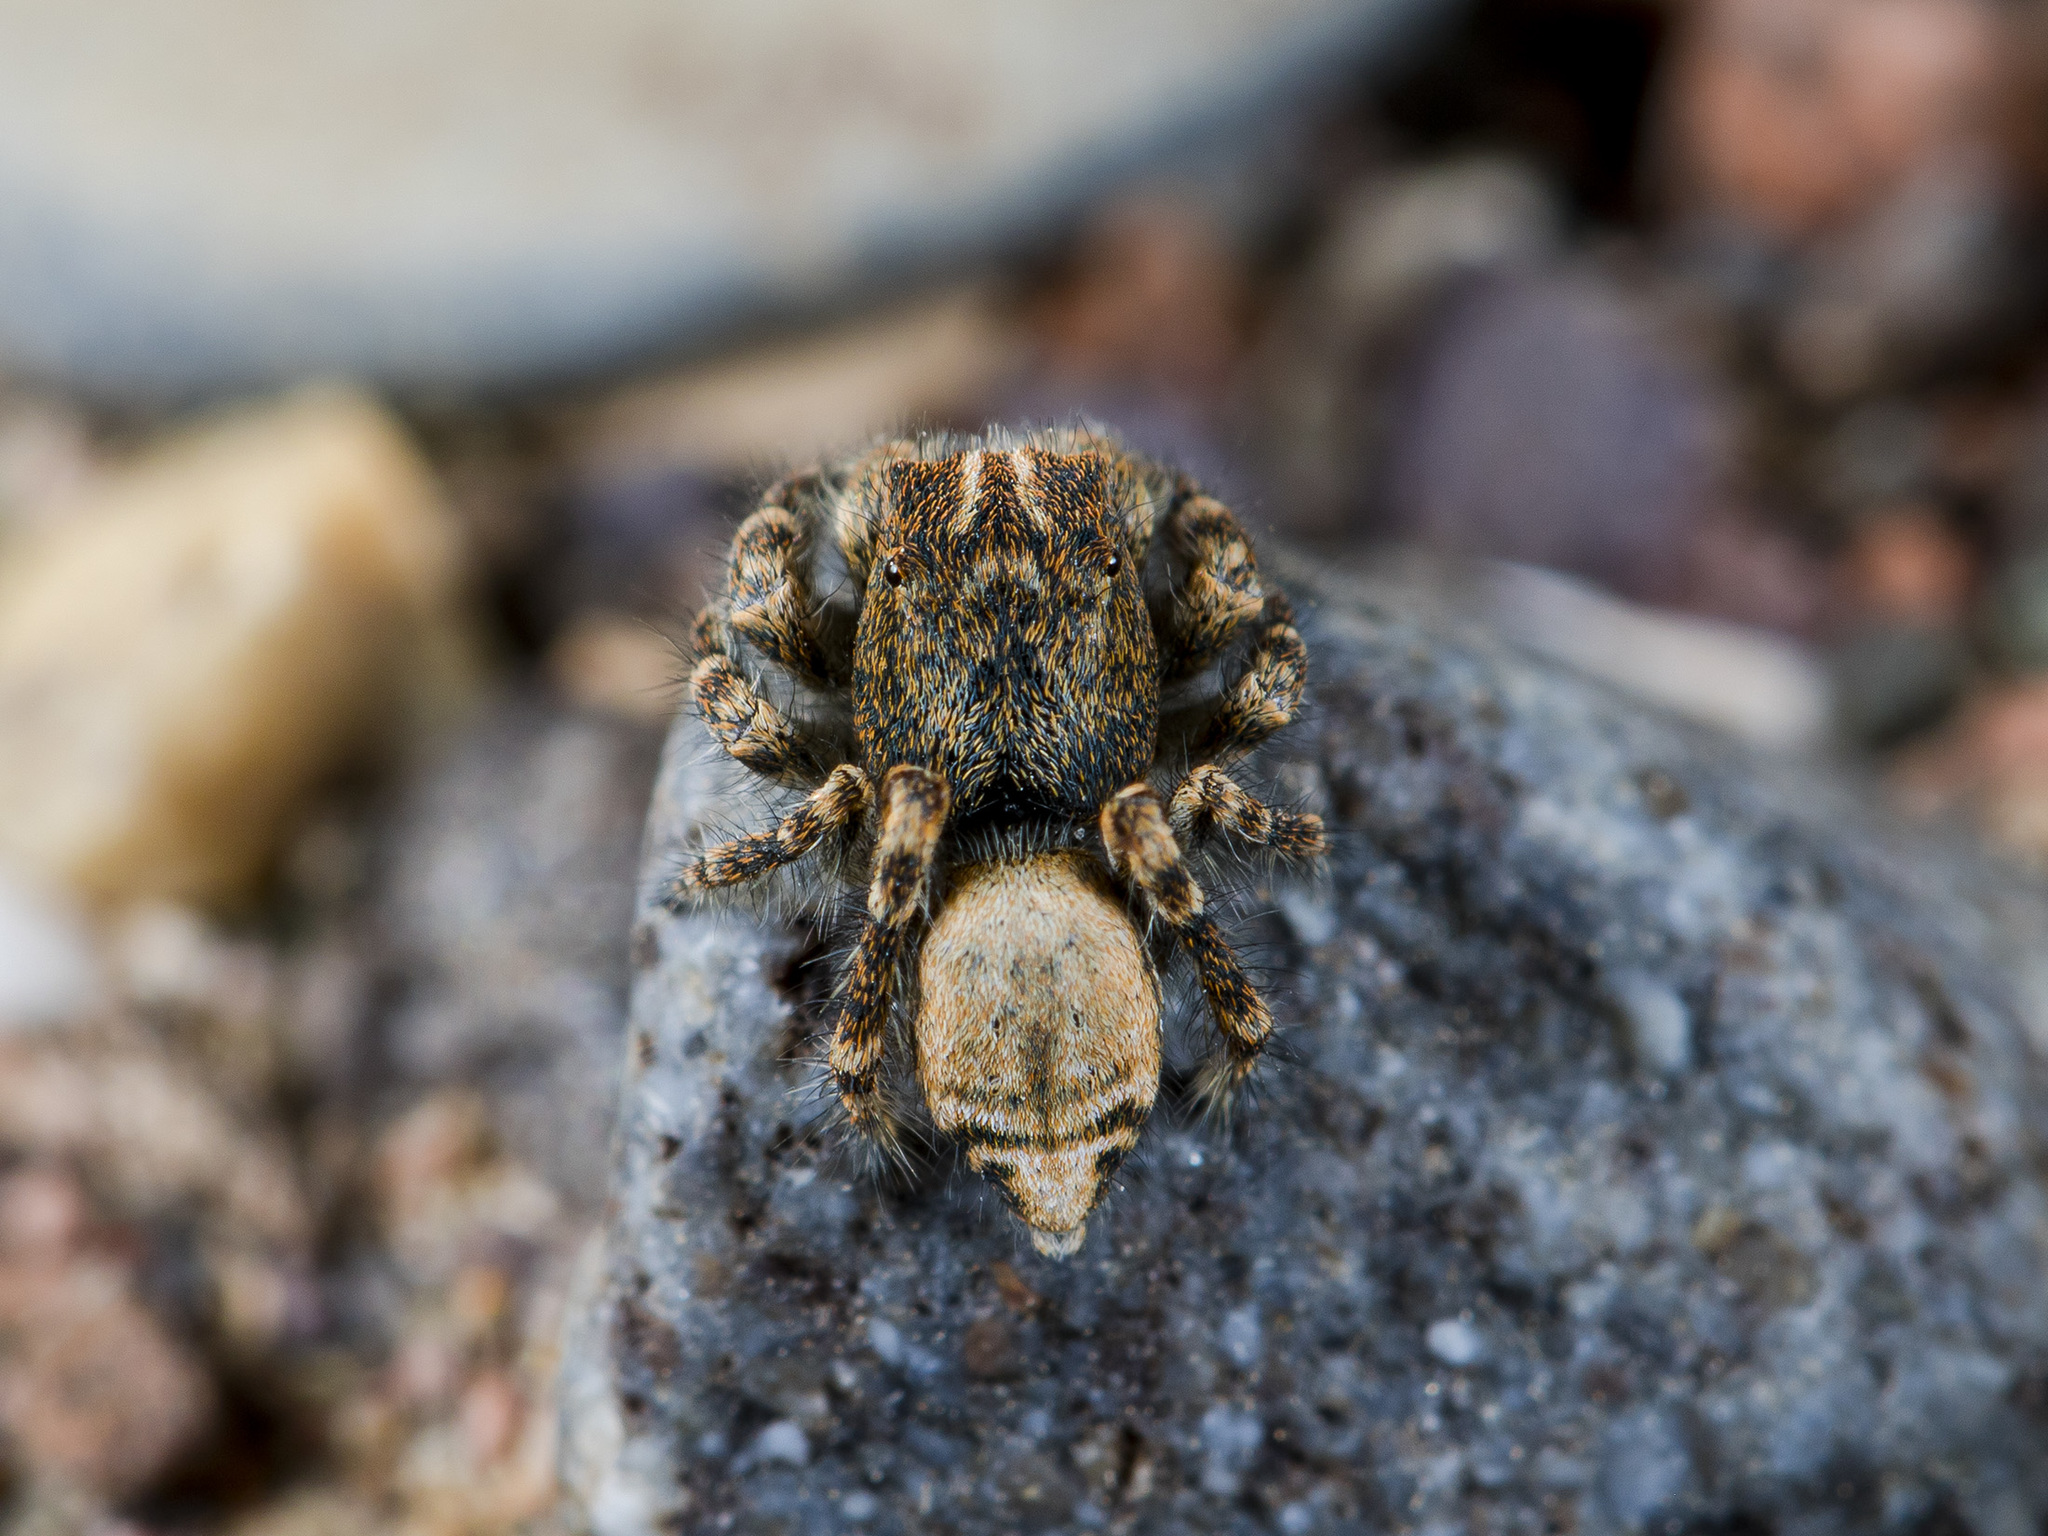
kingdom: Animalia
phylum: Arthropoda
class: Arachnida
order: Araneae
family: Salticidae
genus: Yllenus
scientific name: Yllenus zyuzini
